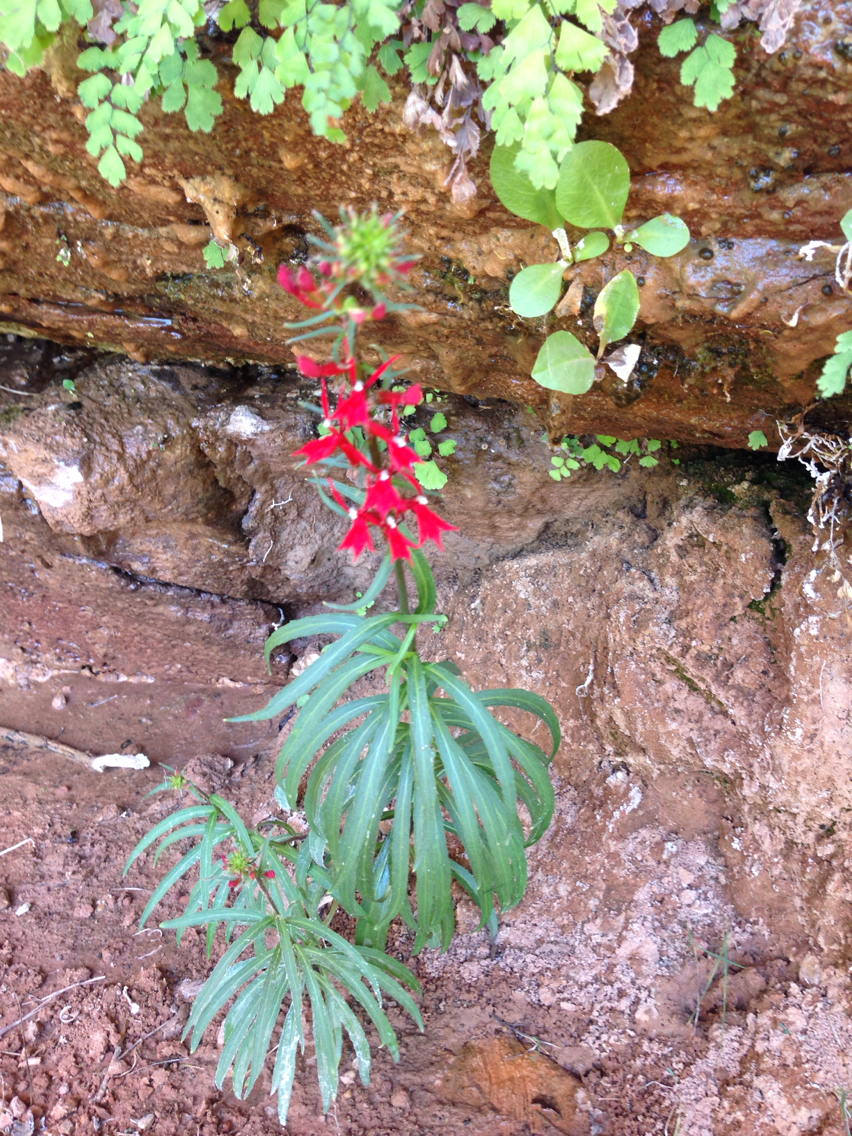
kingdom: Plantae
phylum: Tracheophyta
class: Magnoliopsida
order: Asterales
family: Campanulaceae
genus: Lobelia
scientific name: Lobelia cardinalis
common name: Cardinal flower
